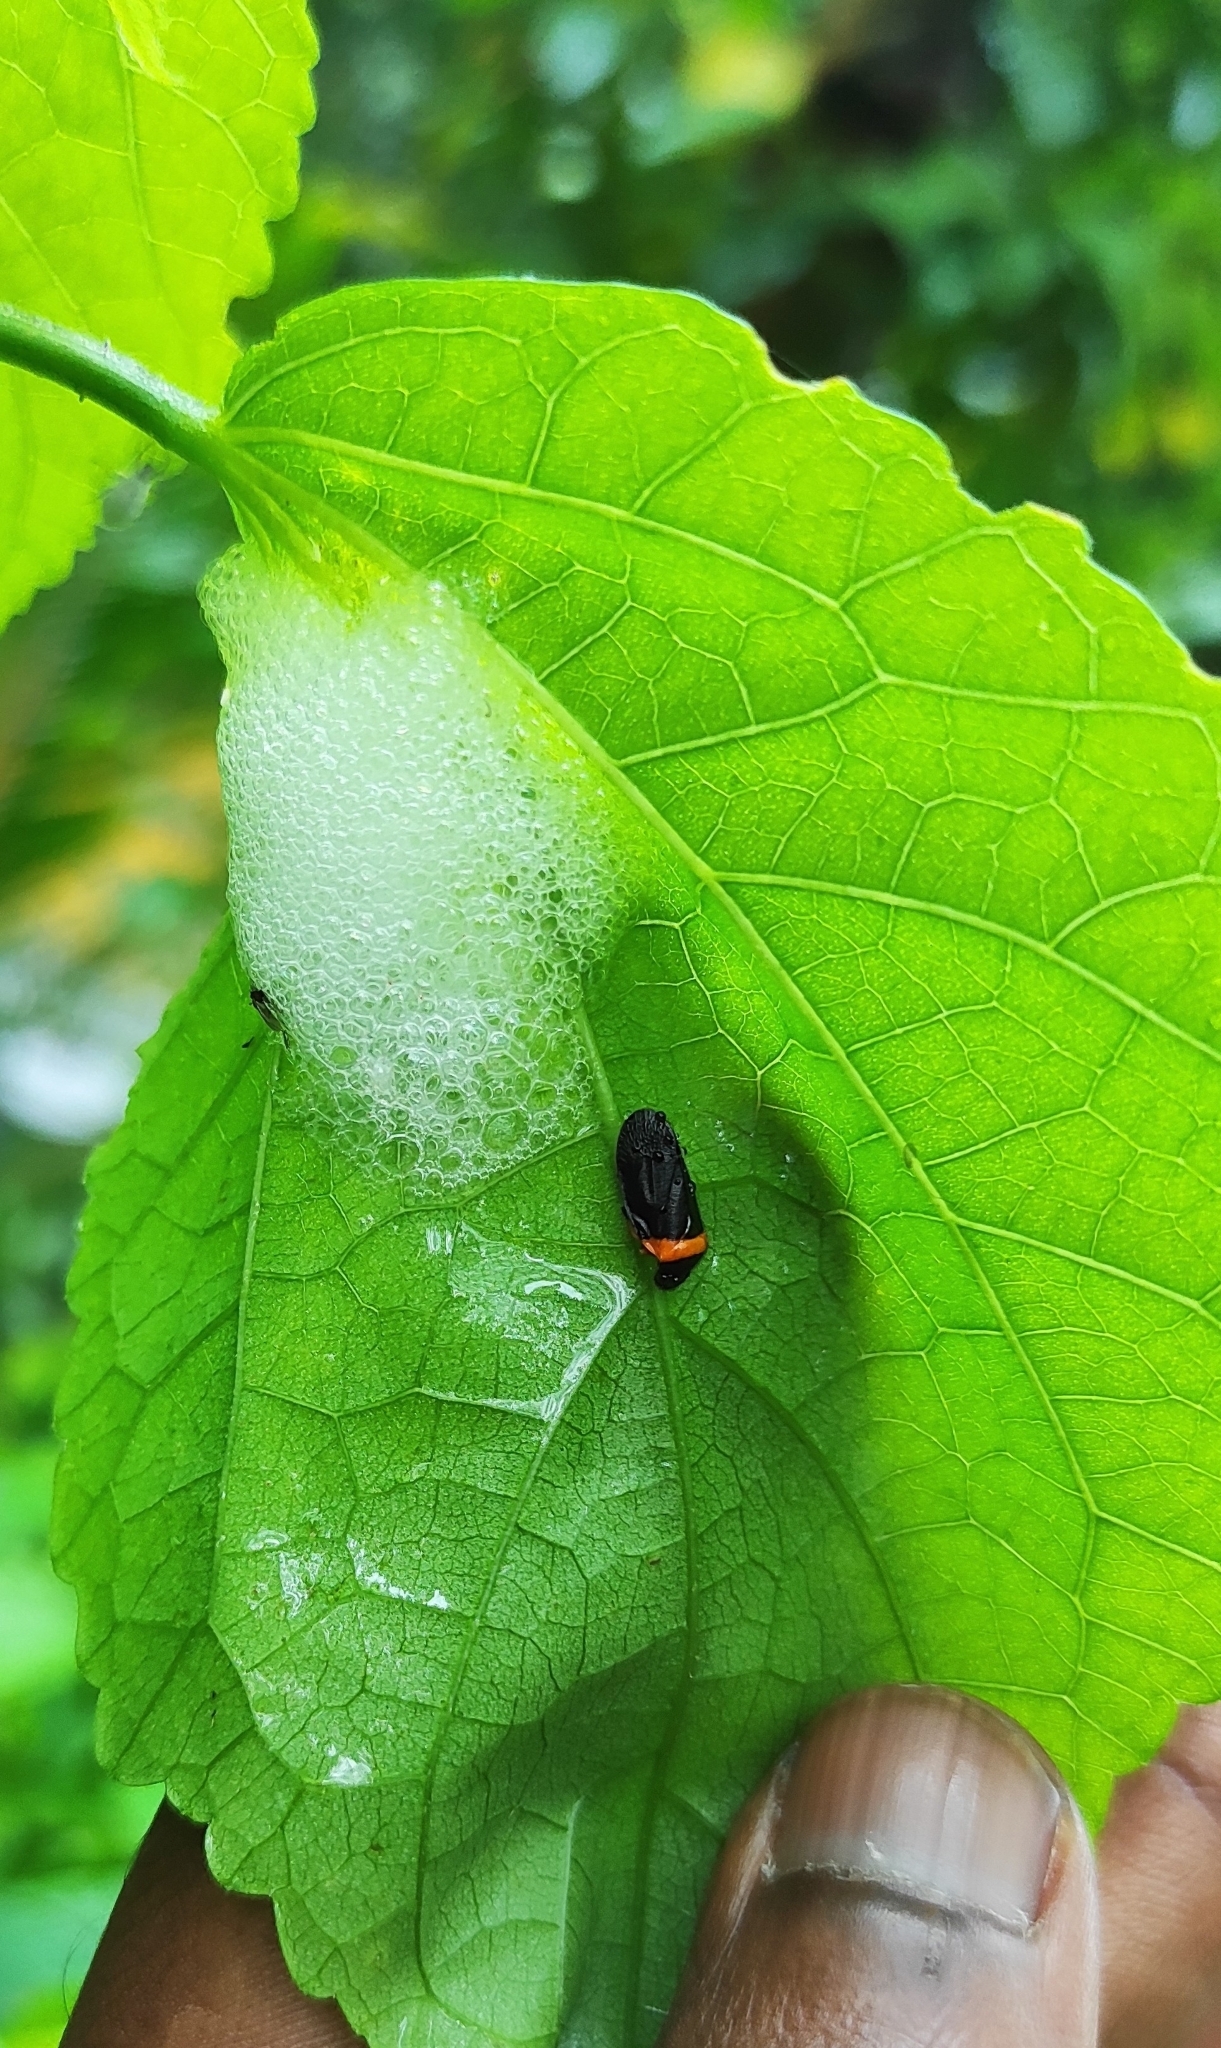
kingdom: Animalia
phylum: Arthropoda
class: Insecta
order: Hemiptera
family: Cercopidae
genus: Phymatostetha
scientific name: Phymatostetha deschampsi
